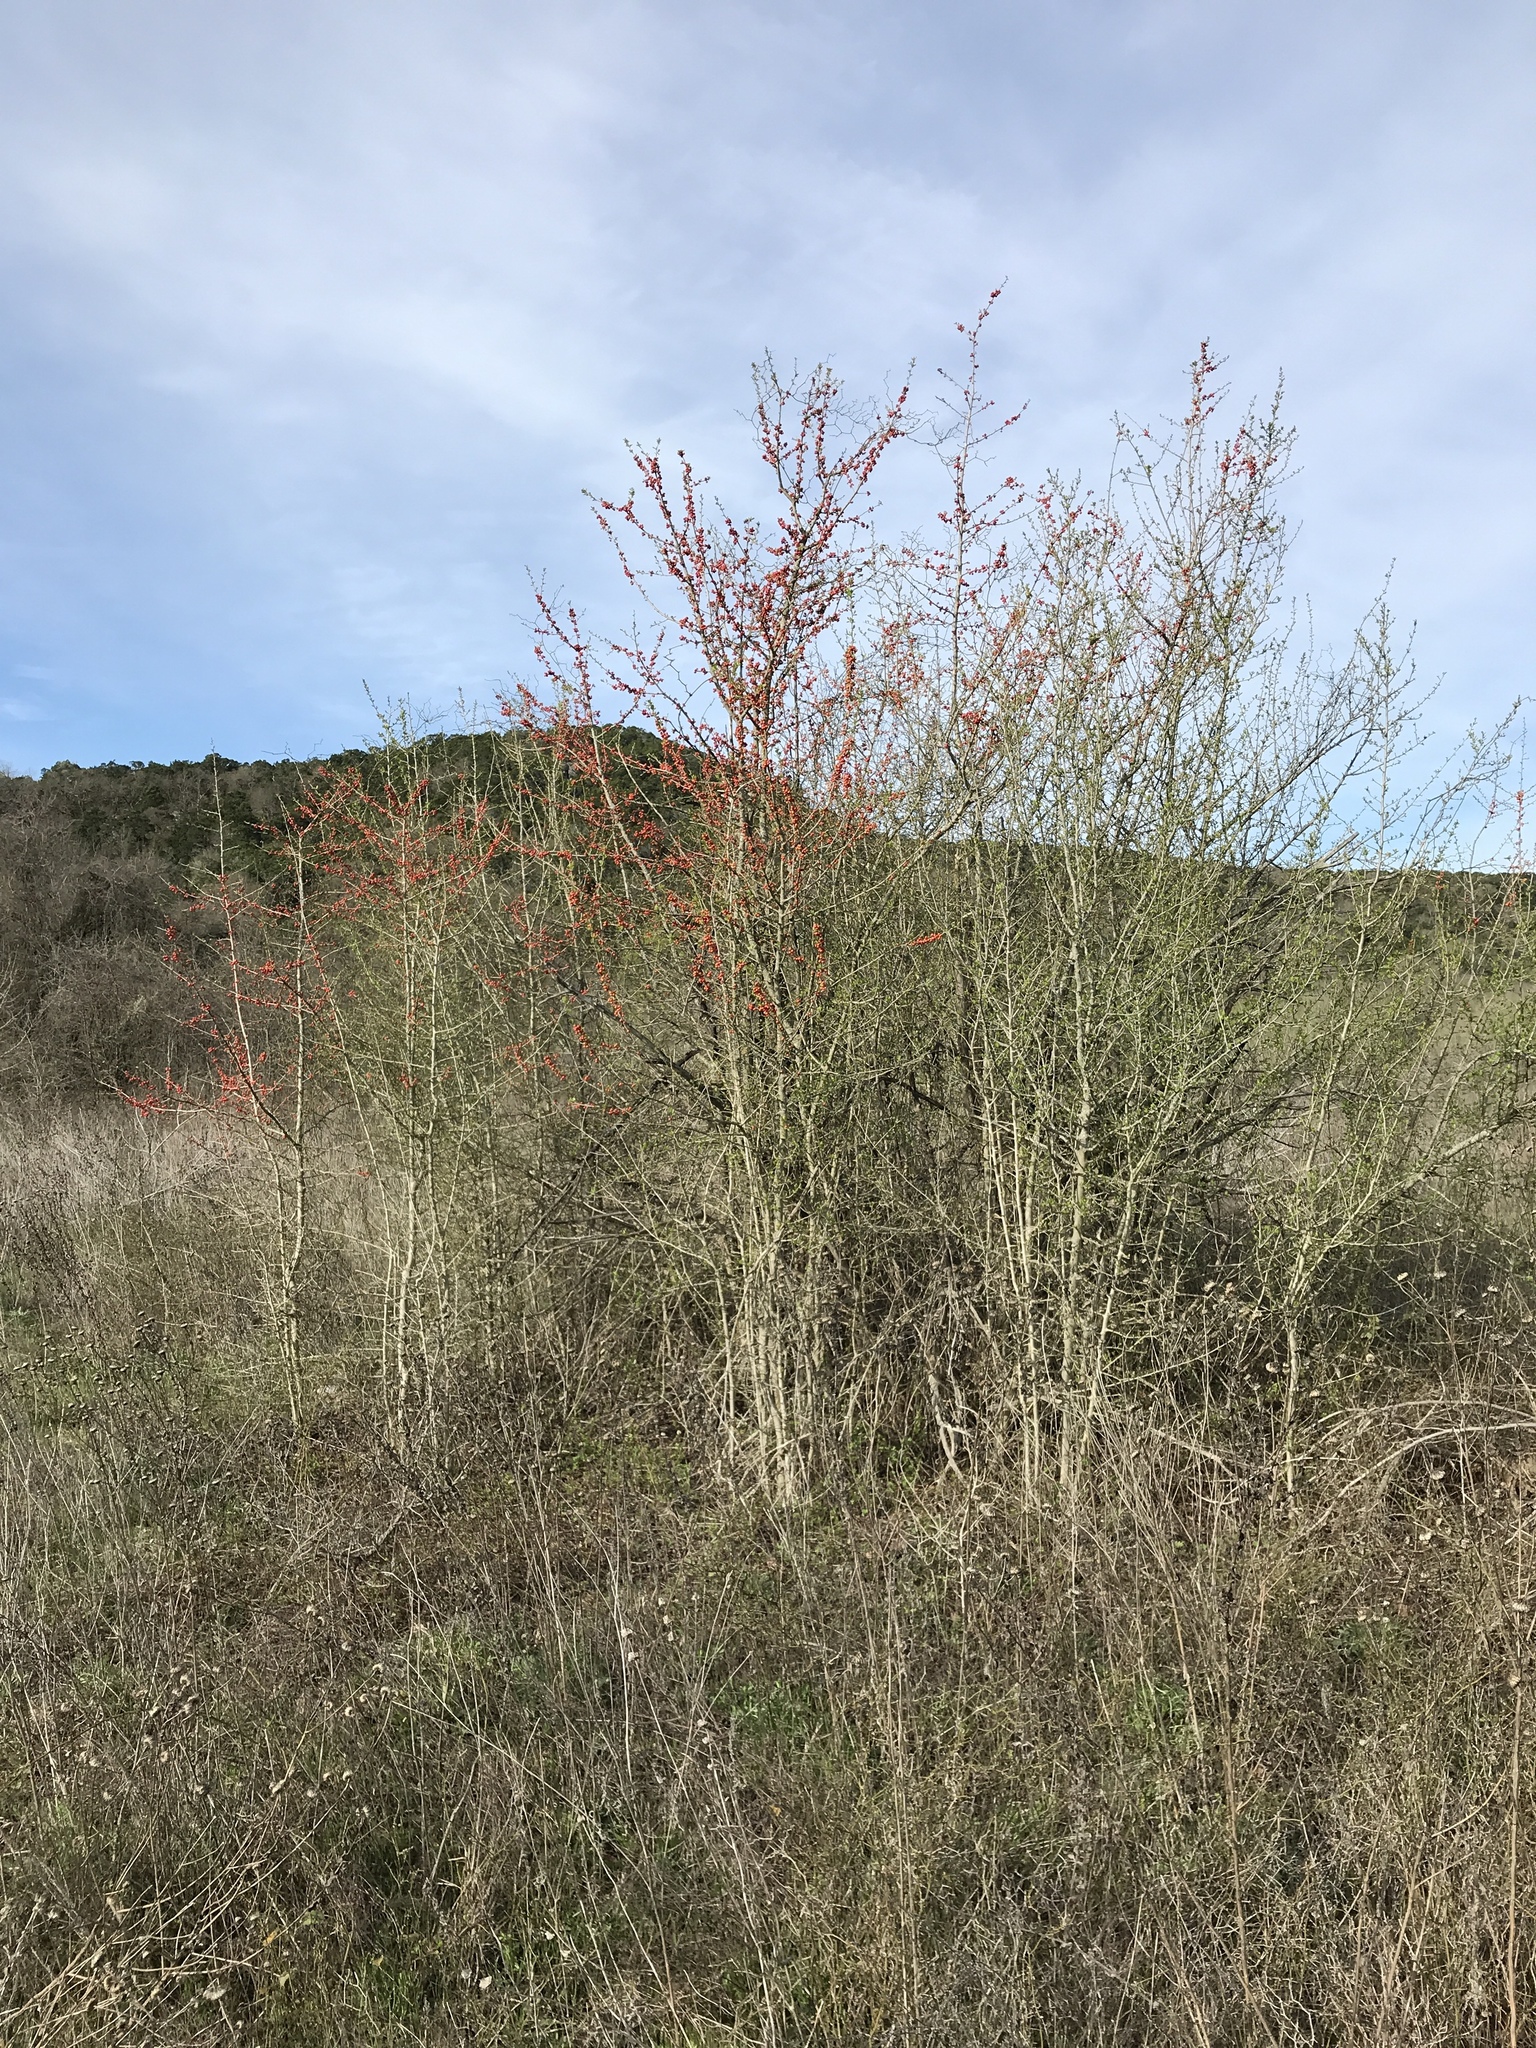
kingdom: Plantae
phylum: Tracheophyta
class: Magnoliopsida
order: Aquifoliales
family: Aquifoliaceae
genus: Ilex
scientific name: Ilex decidua
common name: Possum-haw
